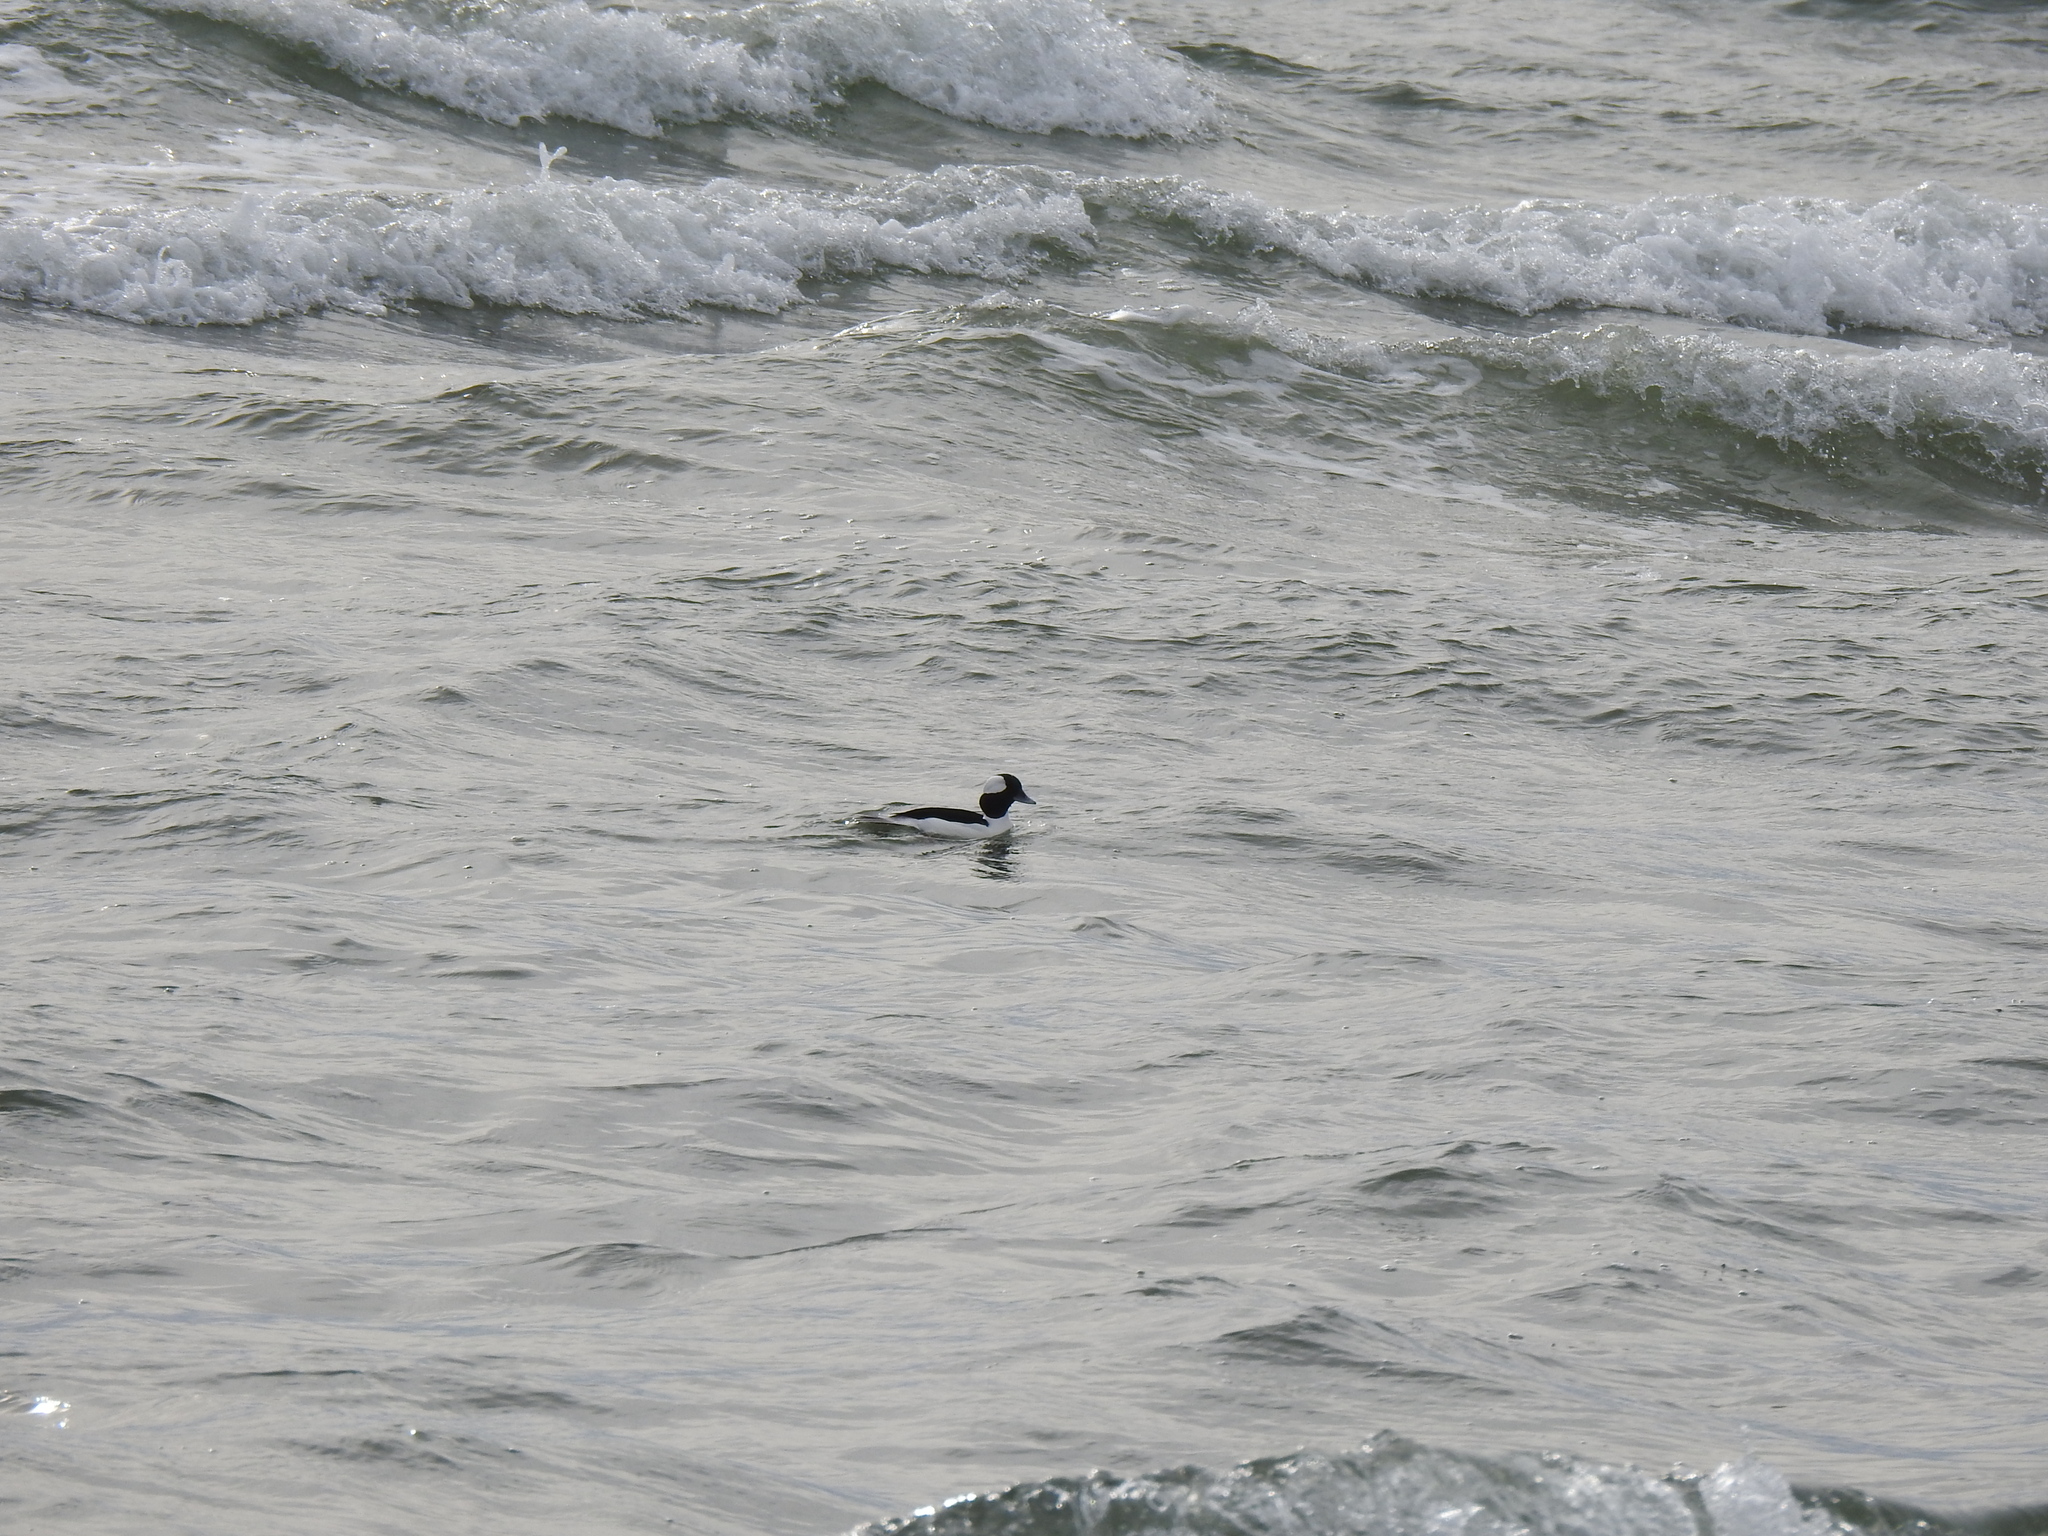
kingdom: Animalia
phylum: Chordata
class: Aves
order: Anseriformes
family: Anatidae
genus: Bucephala
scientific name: Bucephala albeola
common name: Bufflehead
